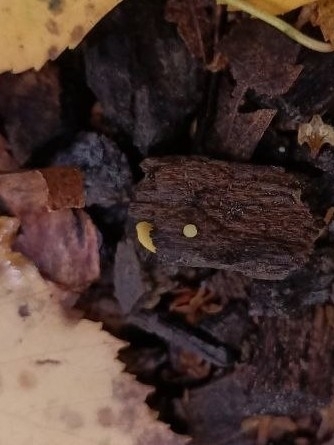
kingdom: Fungi
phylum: Ascomycota
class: Leotiomycetes
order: Helotiales
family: Pezizellaceae
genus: Calycina
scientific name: Calycina citrina
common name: Yellow fairy cups
